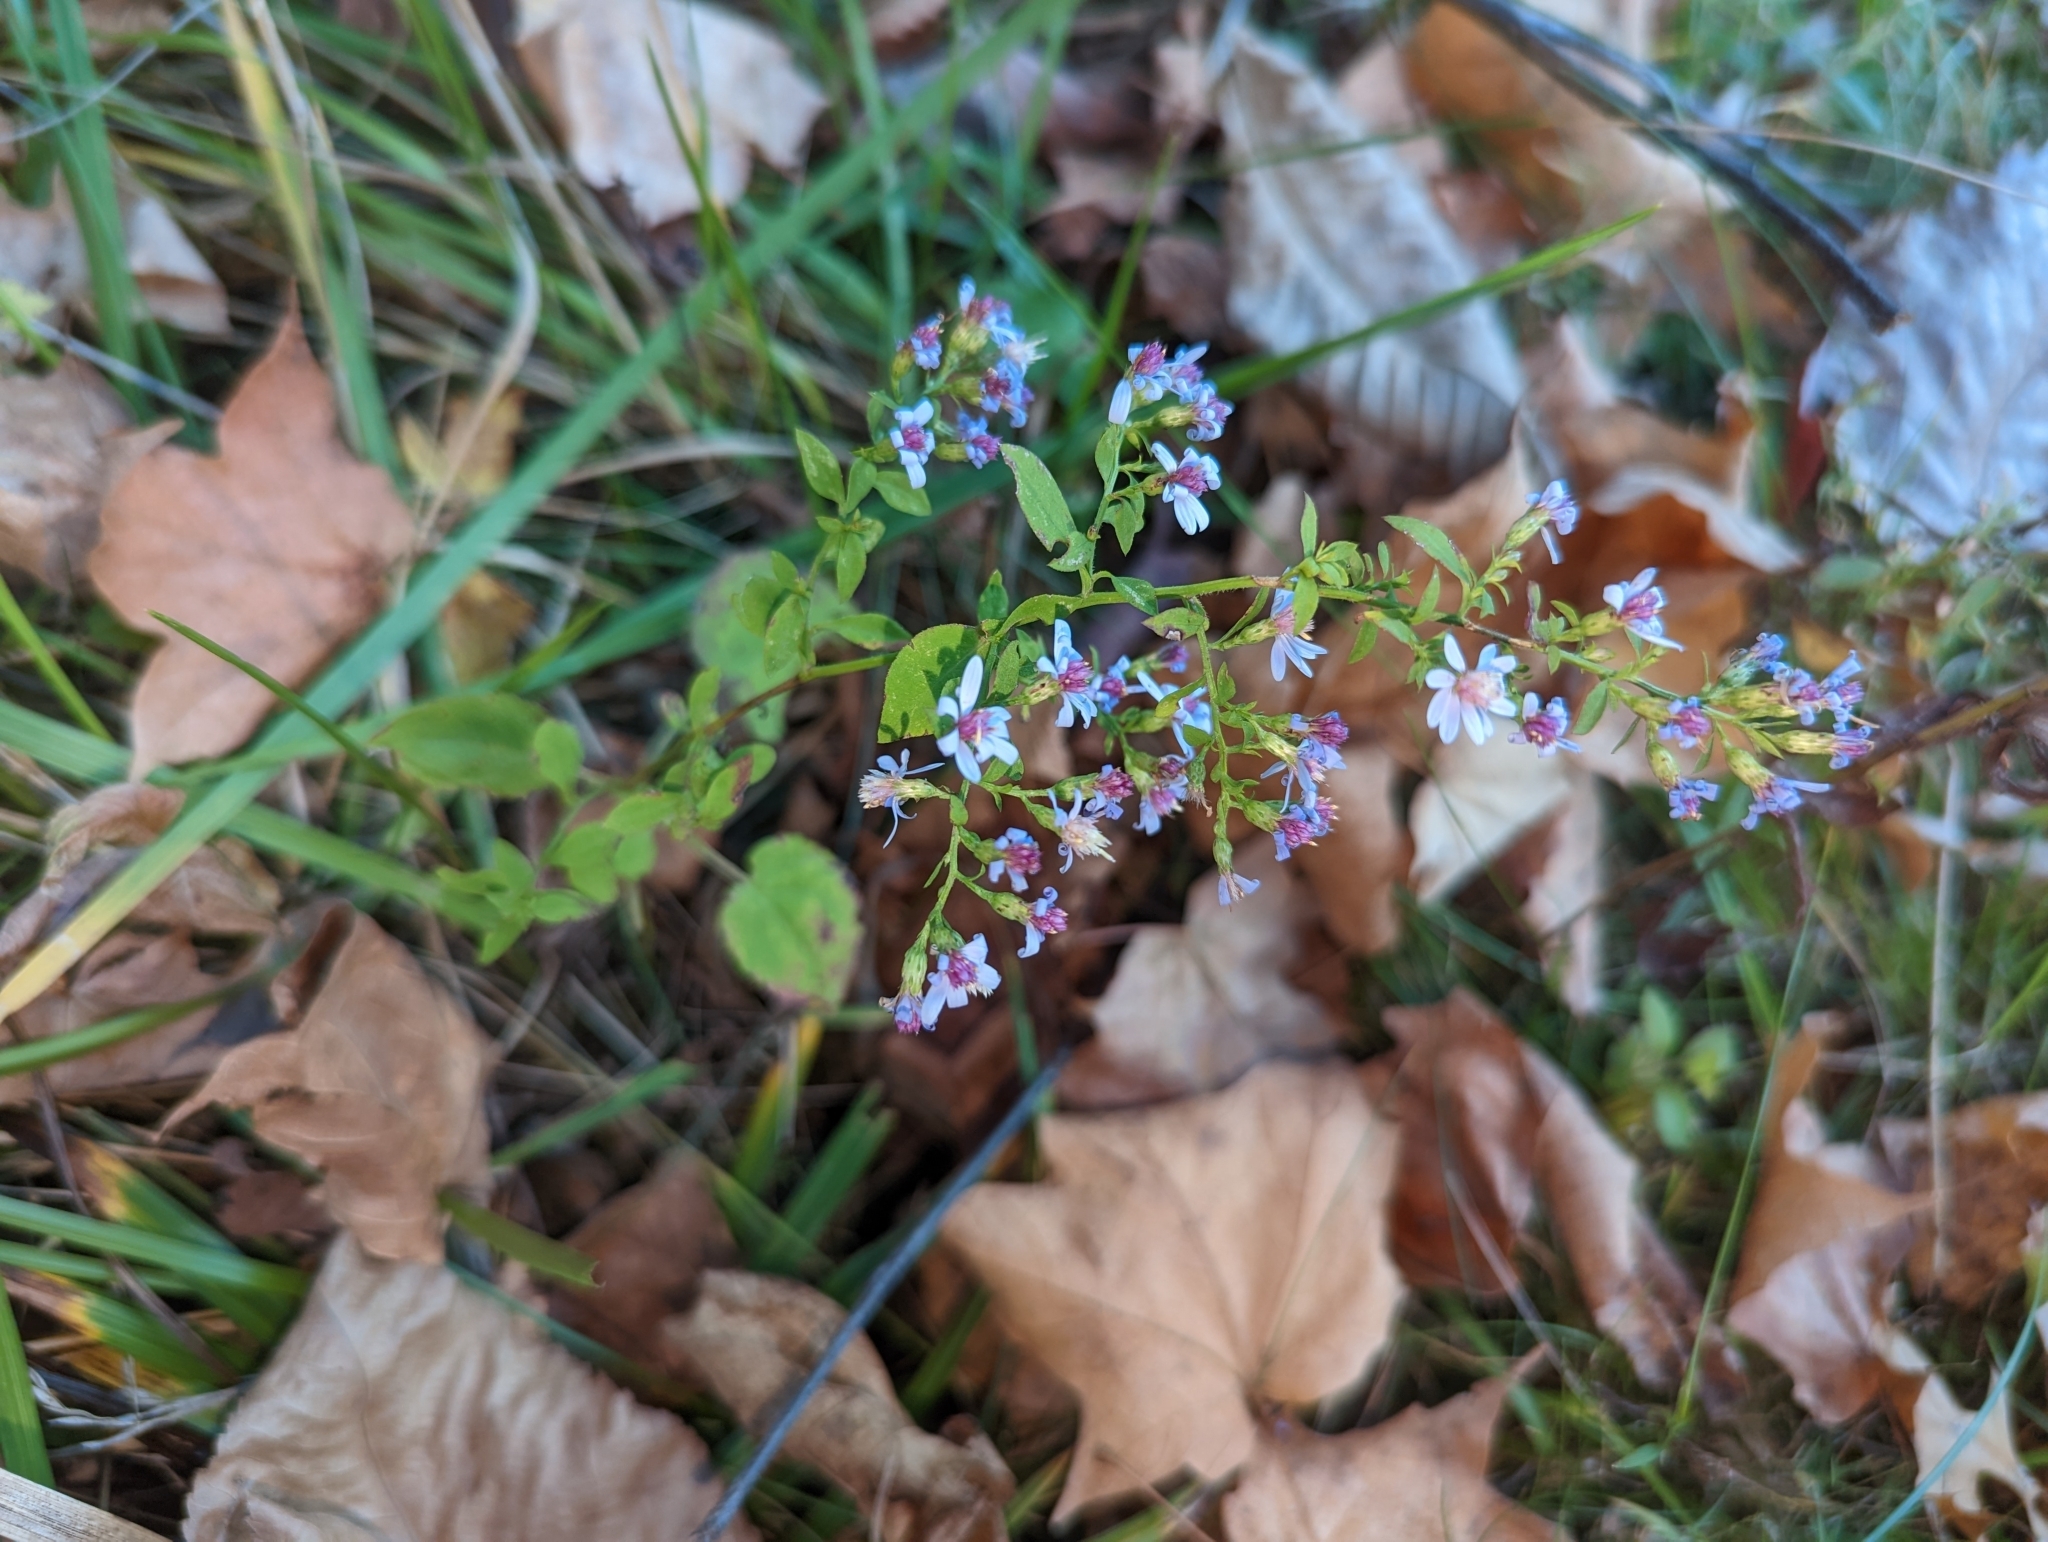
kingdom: Plantae
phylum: Tracheophyta
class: Magnoliopsida
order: Asterales
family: Asteraceae
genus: Symphyotrichum
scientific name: Symphyotrichum cordifolium
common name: Beeweed
